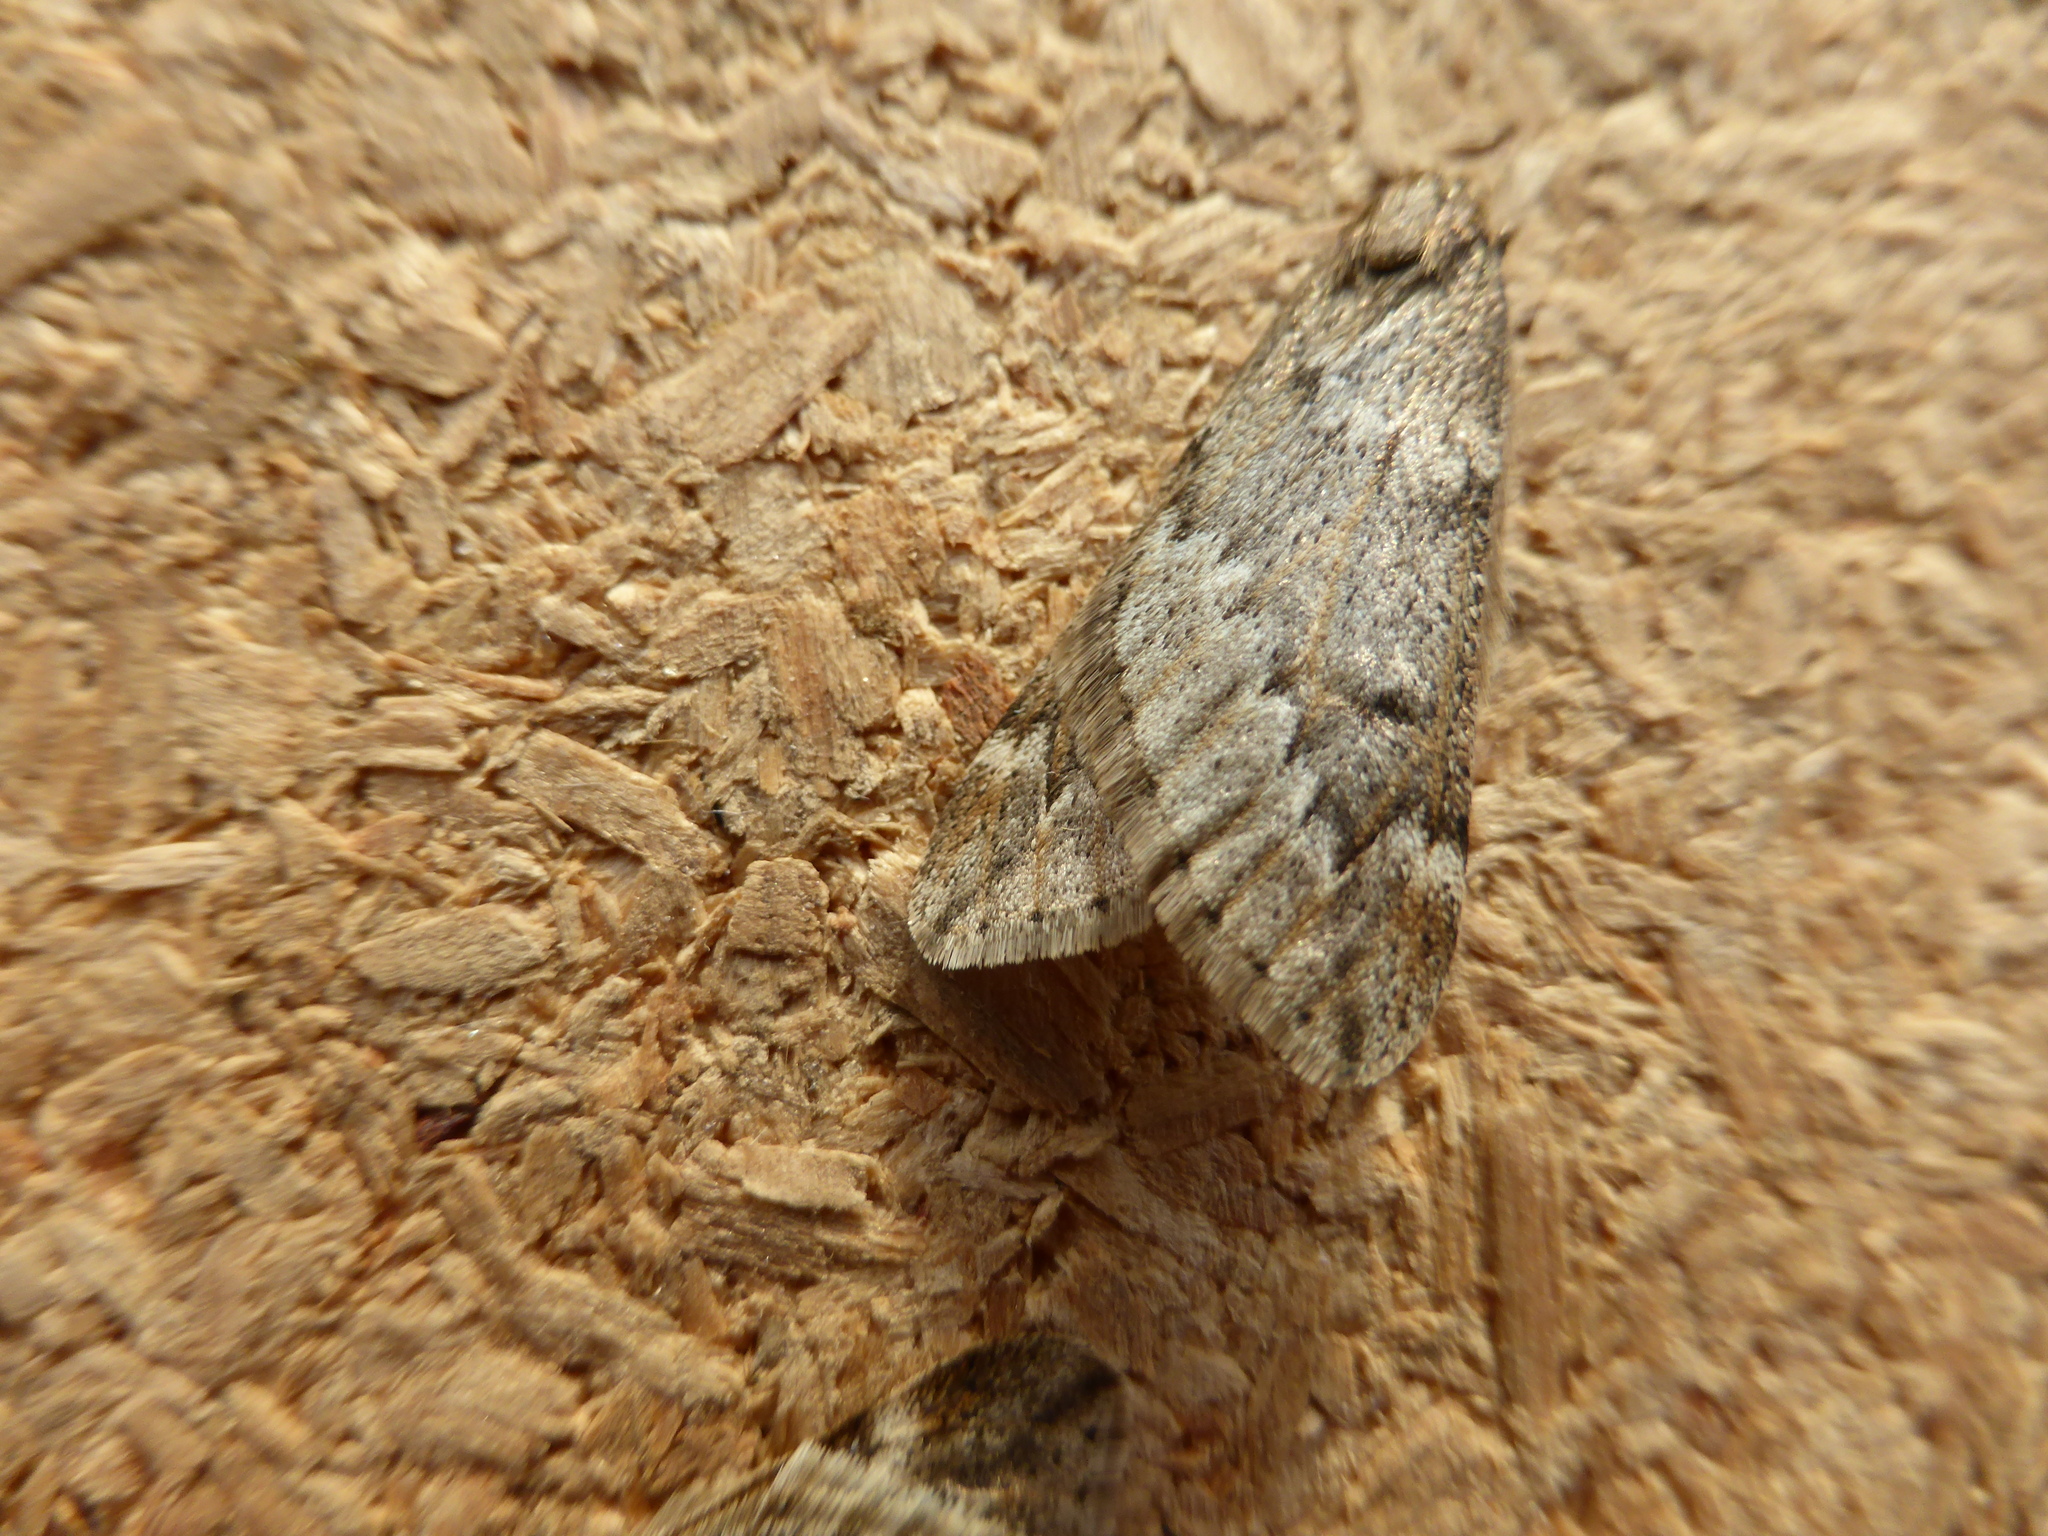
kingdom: Animalia
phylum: Arthropoda
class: Insecta
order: Lepidoptera
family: Geometridae
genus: Alsophila
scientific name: Alsophila aescularia
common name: March moth
